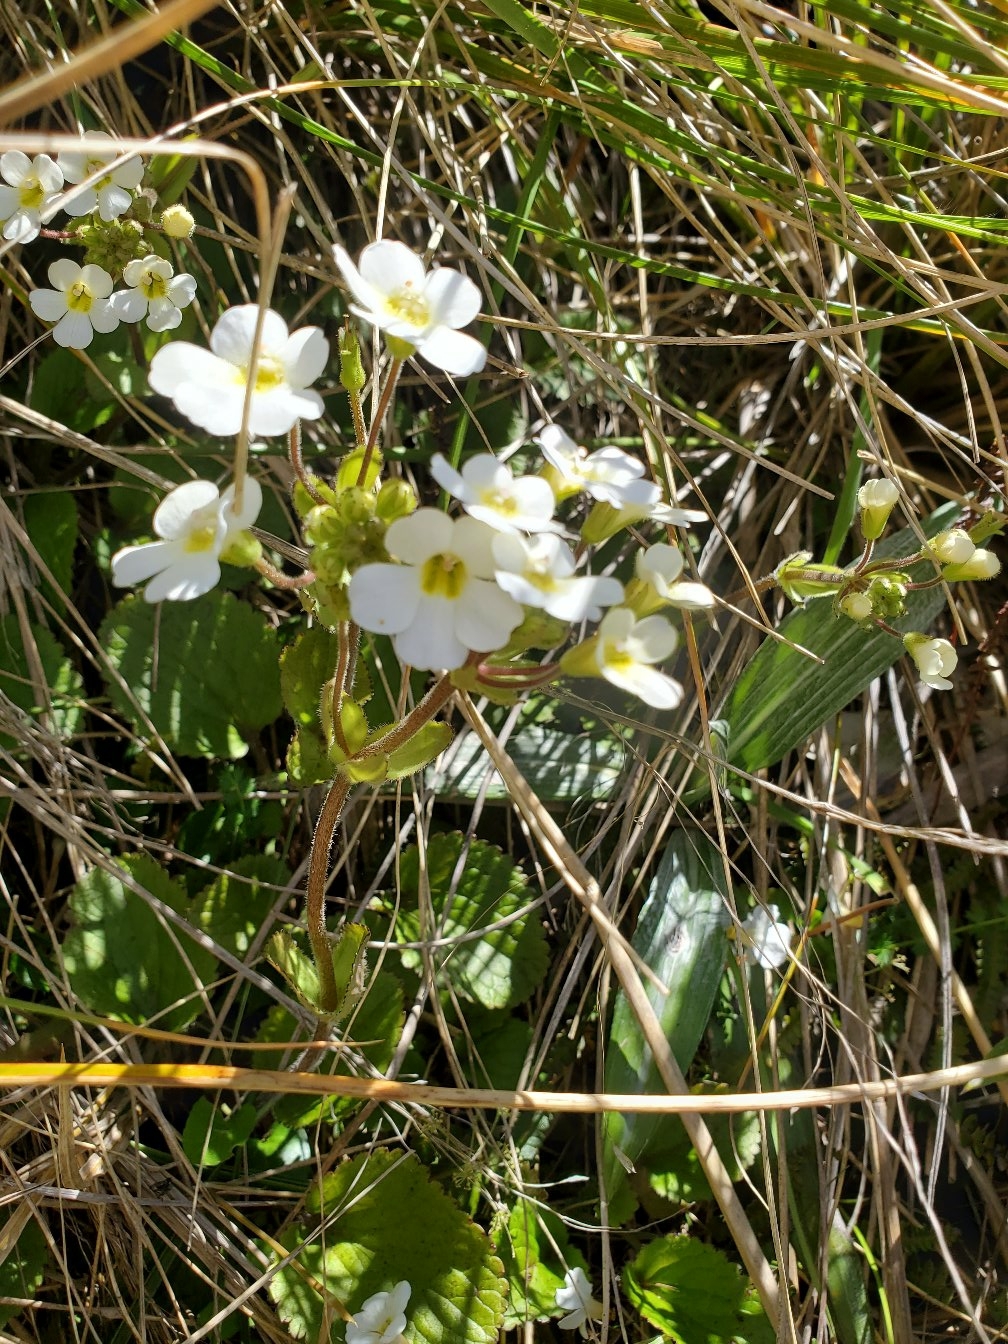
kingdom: Plantae
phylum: Tracheophyta
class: Magnoliopsida
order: Lamiales
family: Plantaginaceae
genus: Ourisia
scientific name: Ourisia macrophylla
